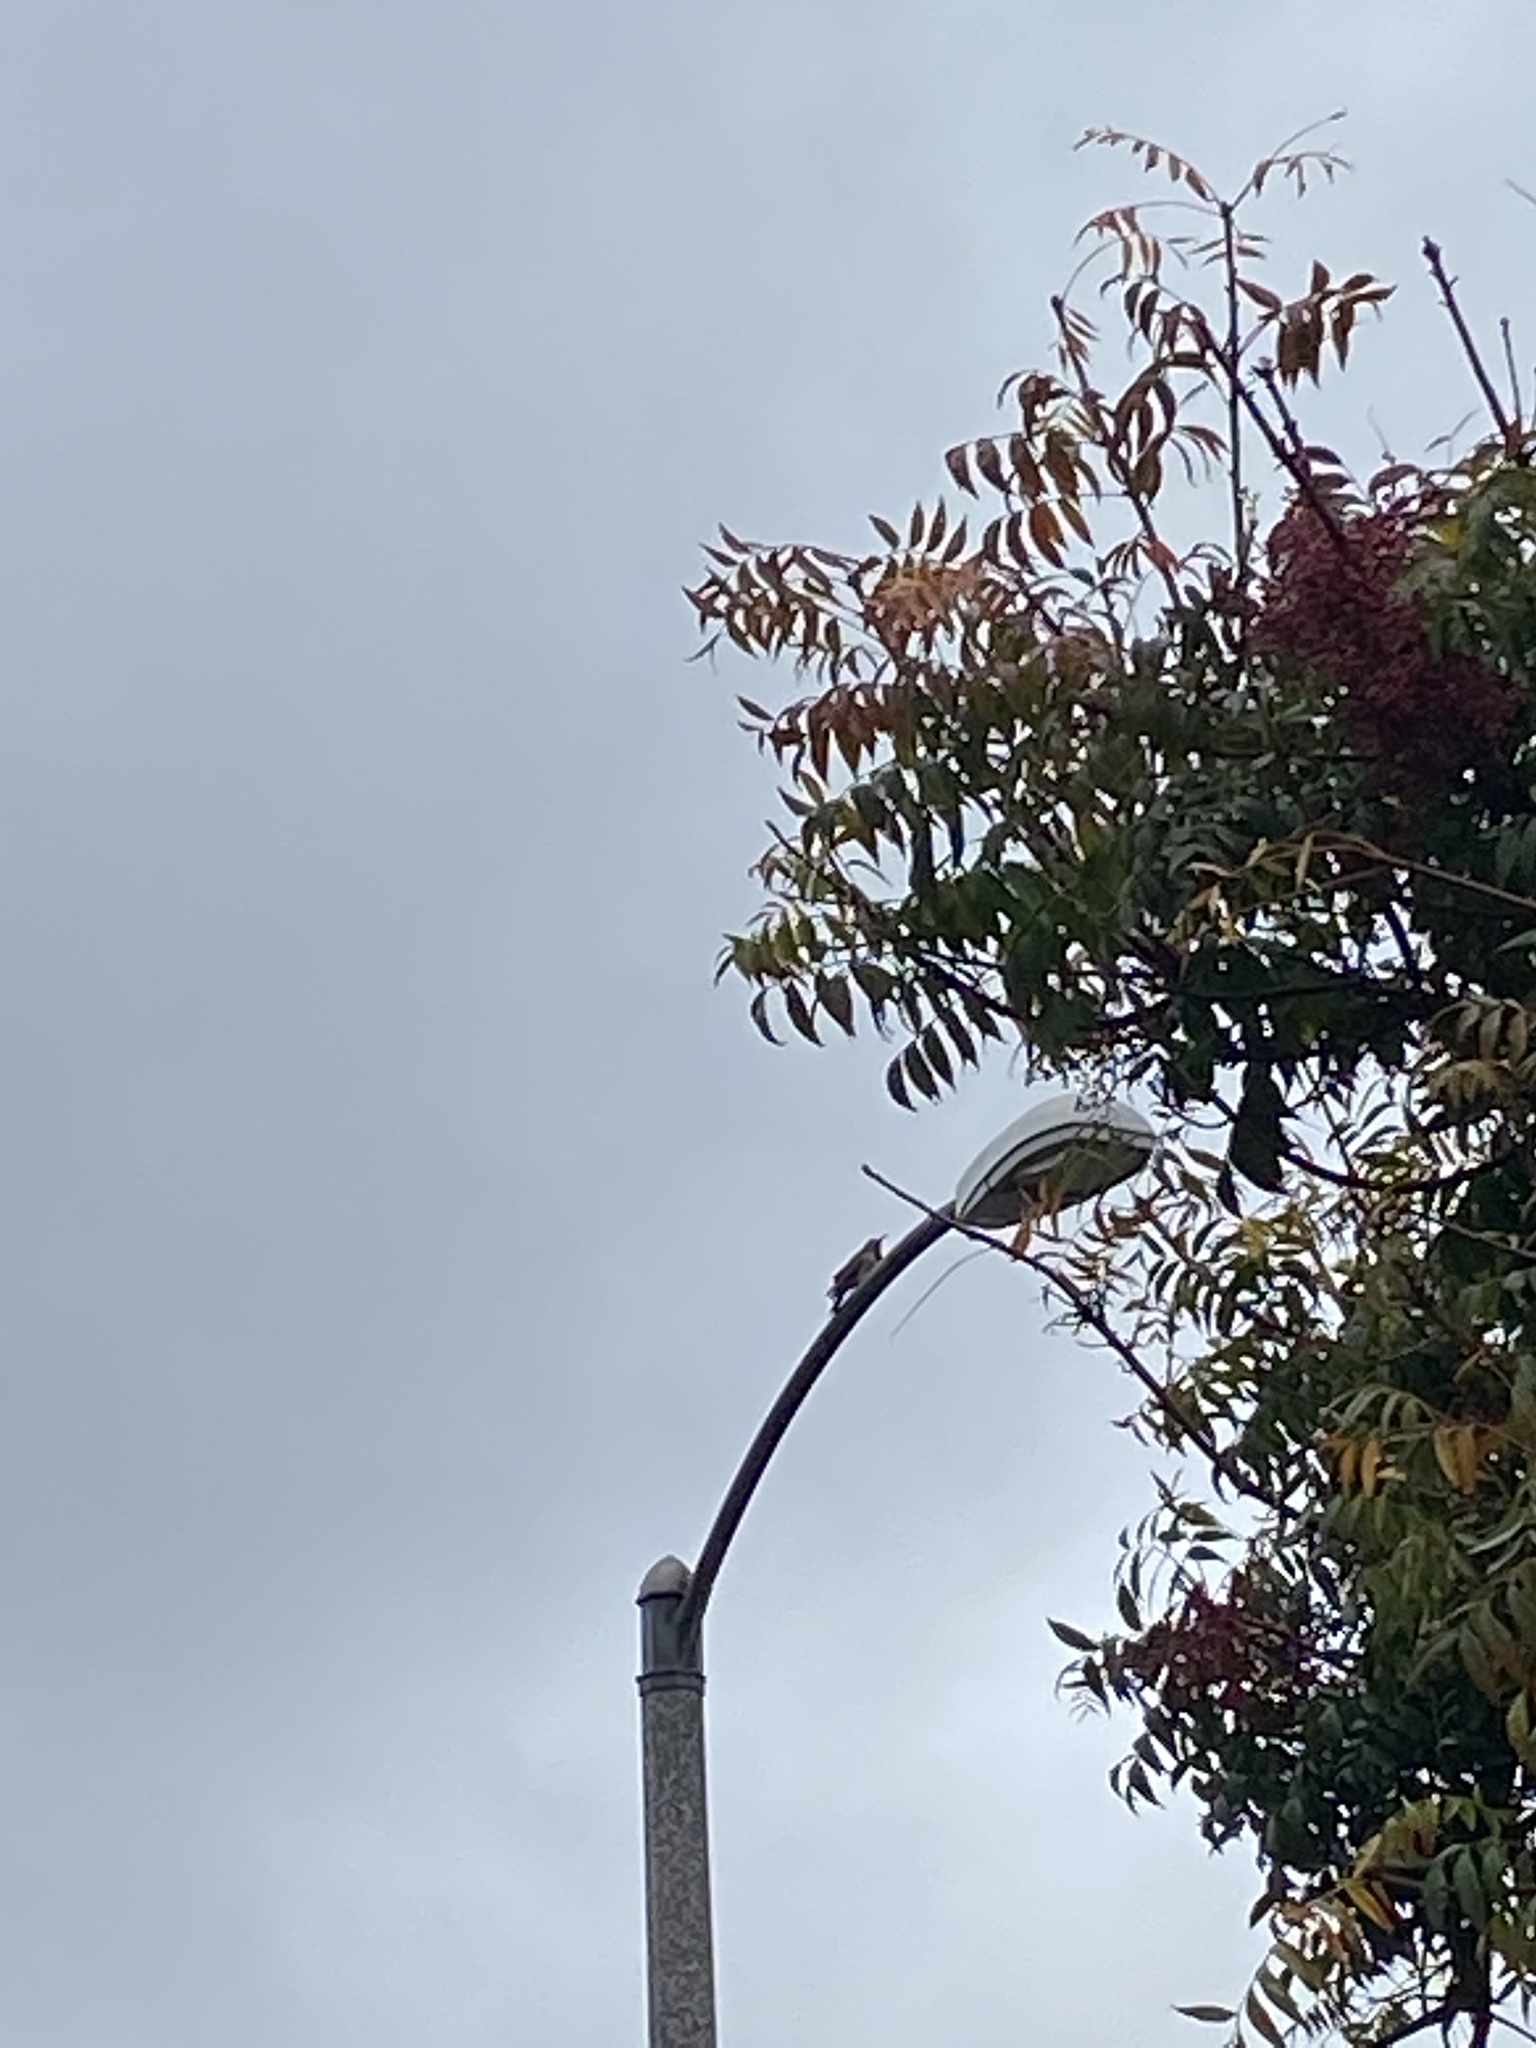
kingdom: Animalia
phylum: Chordata
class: Aves
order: Piciformes
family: Picidae
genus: Colaptes
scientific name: Colaptes auratus
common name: Northern flicker
